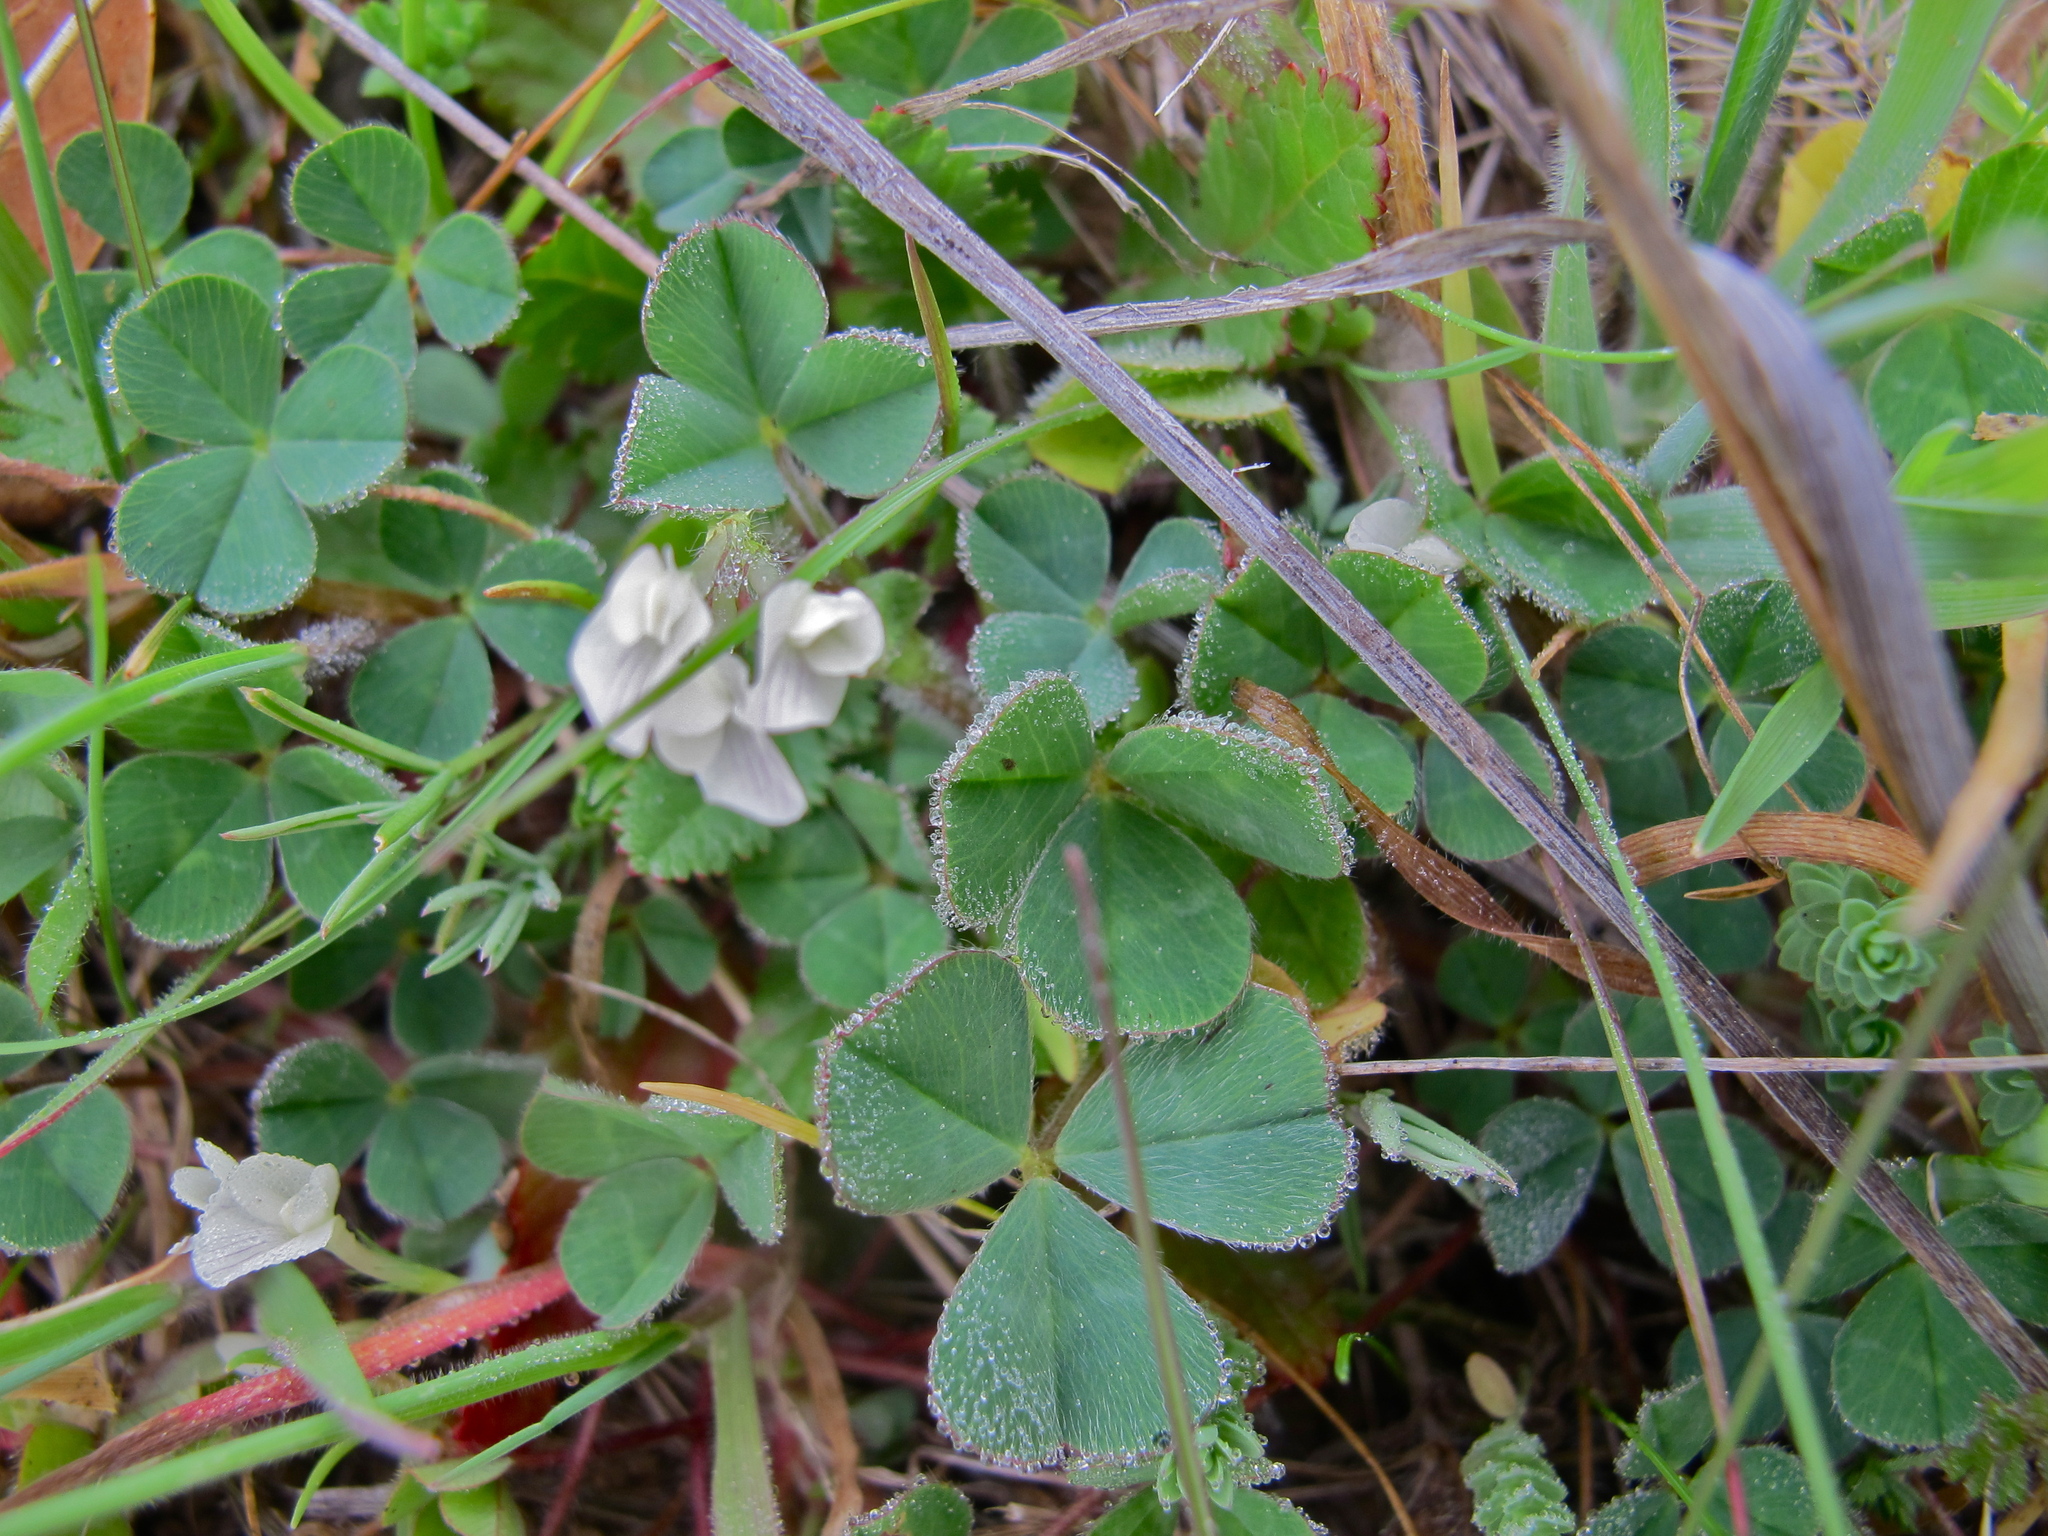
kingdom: Plantae
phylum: Tracheophyta
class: Magnoliopsida
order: Fabales
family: Fabaceae
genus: Trifolium
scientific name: Trifolium subterraneum
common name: Subterranean clover
